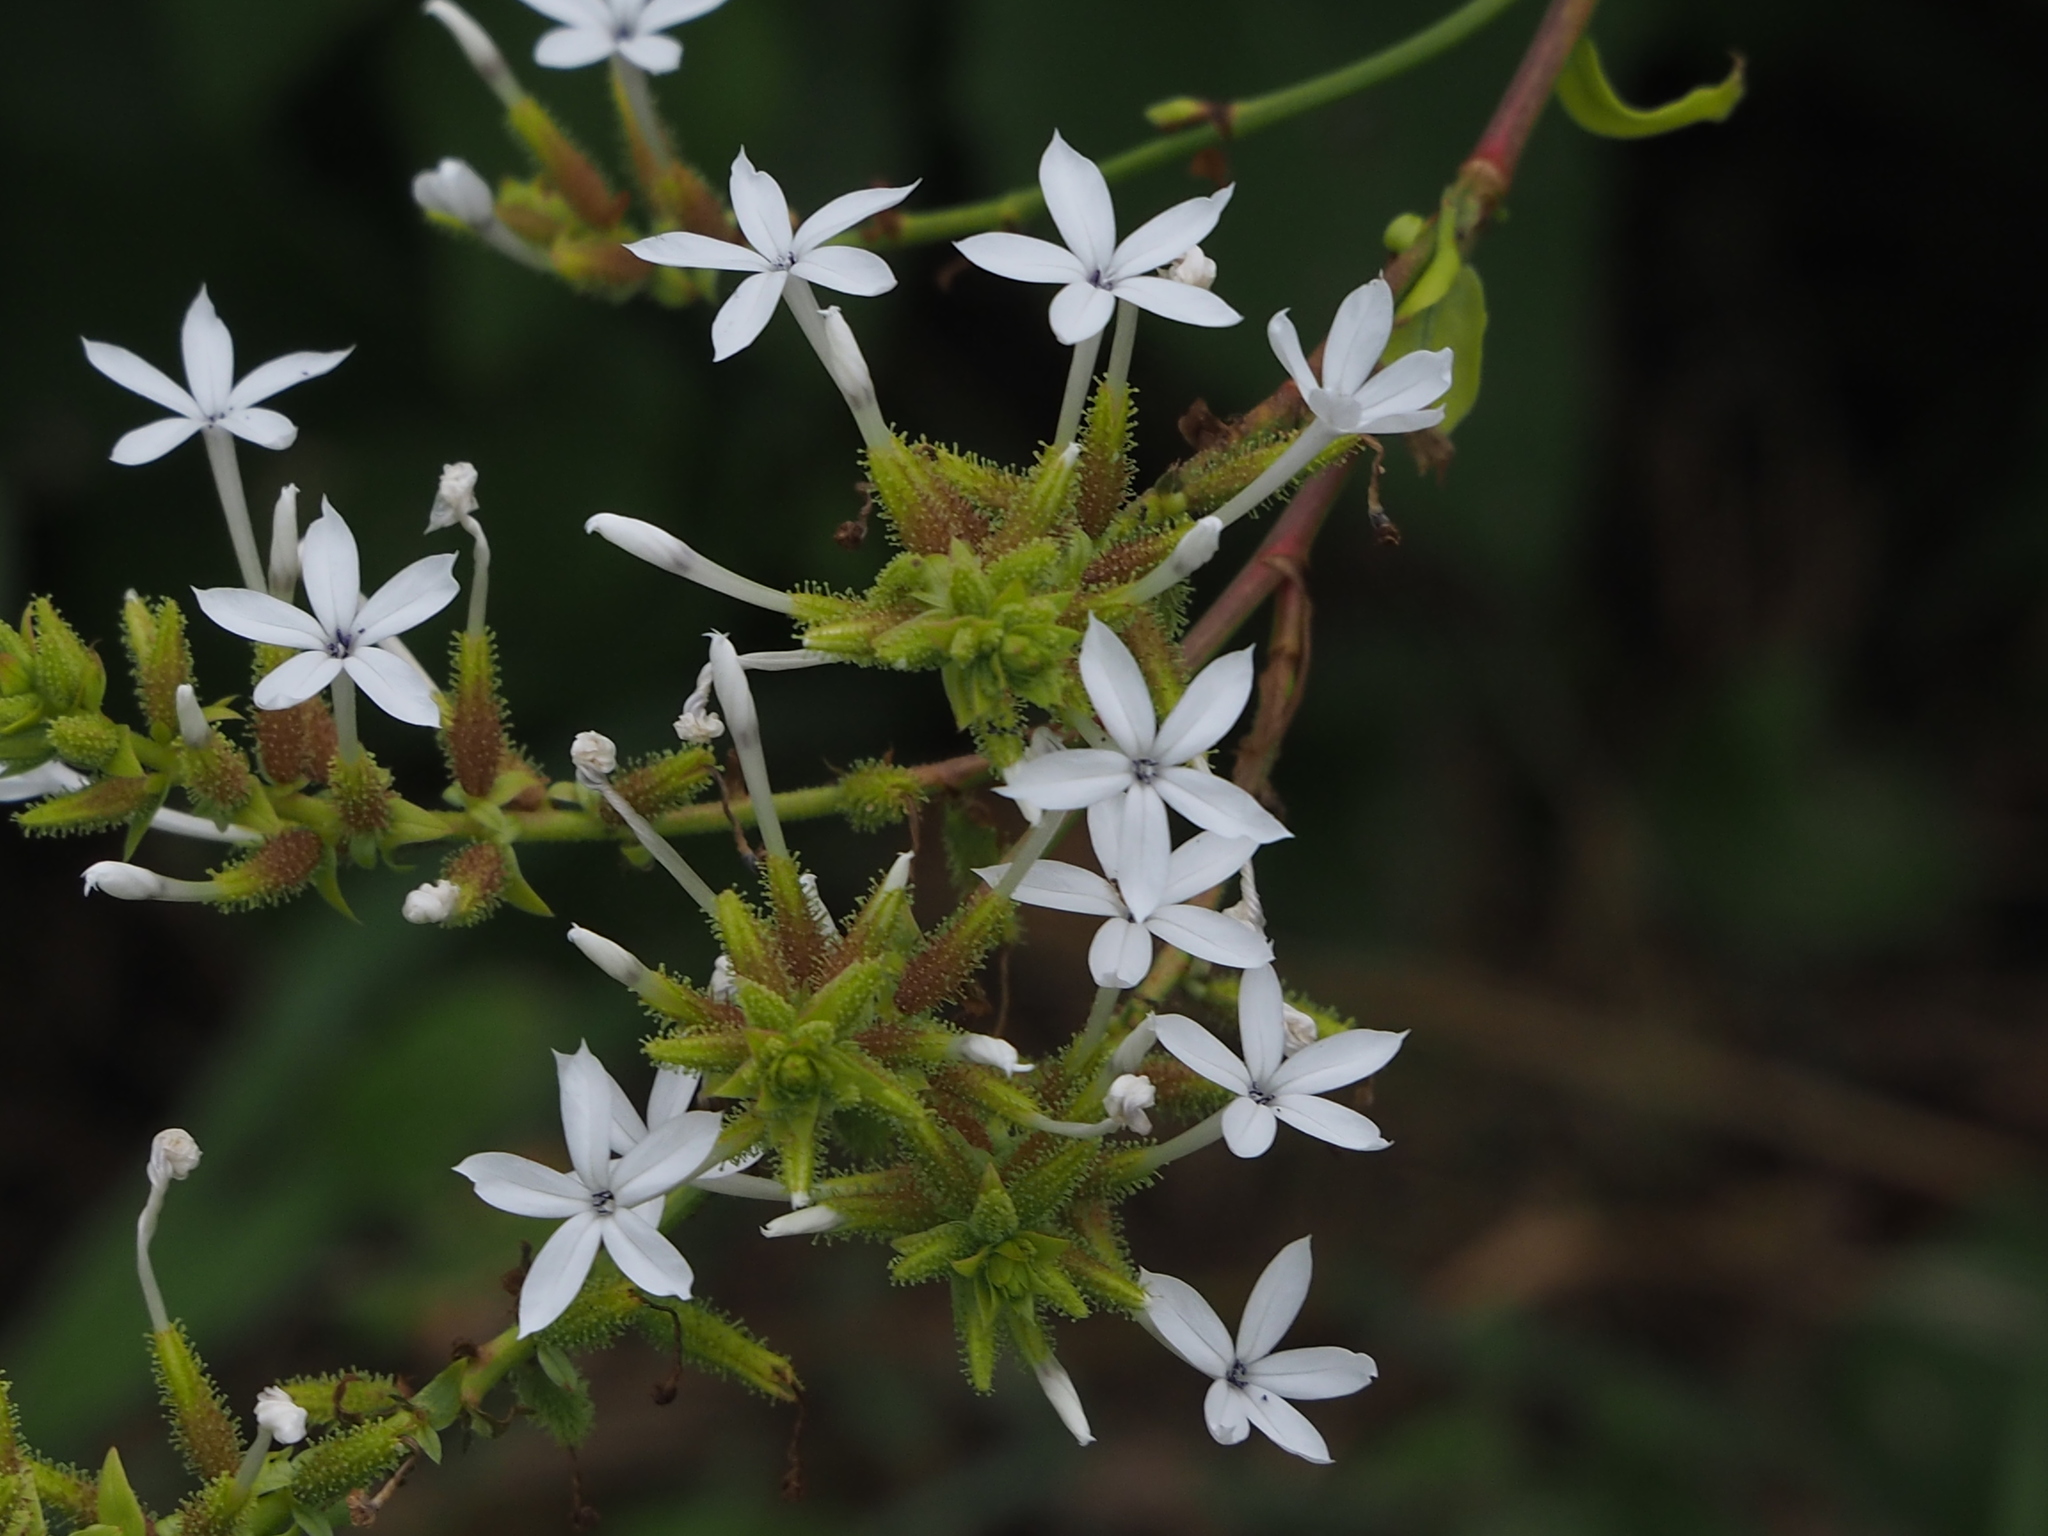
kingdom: Plantae
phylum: Tracheophyta
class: Magnoliopsida
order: Caryophyllales
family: Plumbaginaceae
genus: Plumbago
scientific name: Plumbago zeylanica
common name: Doctorbush
